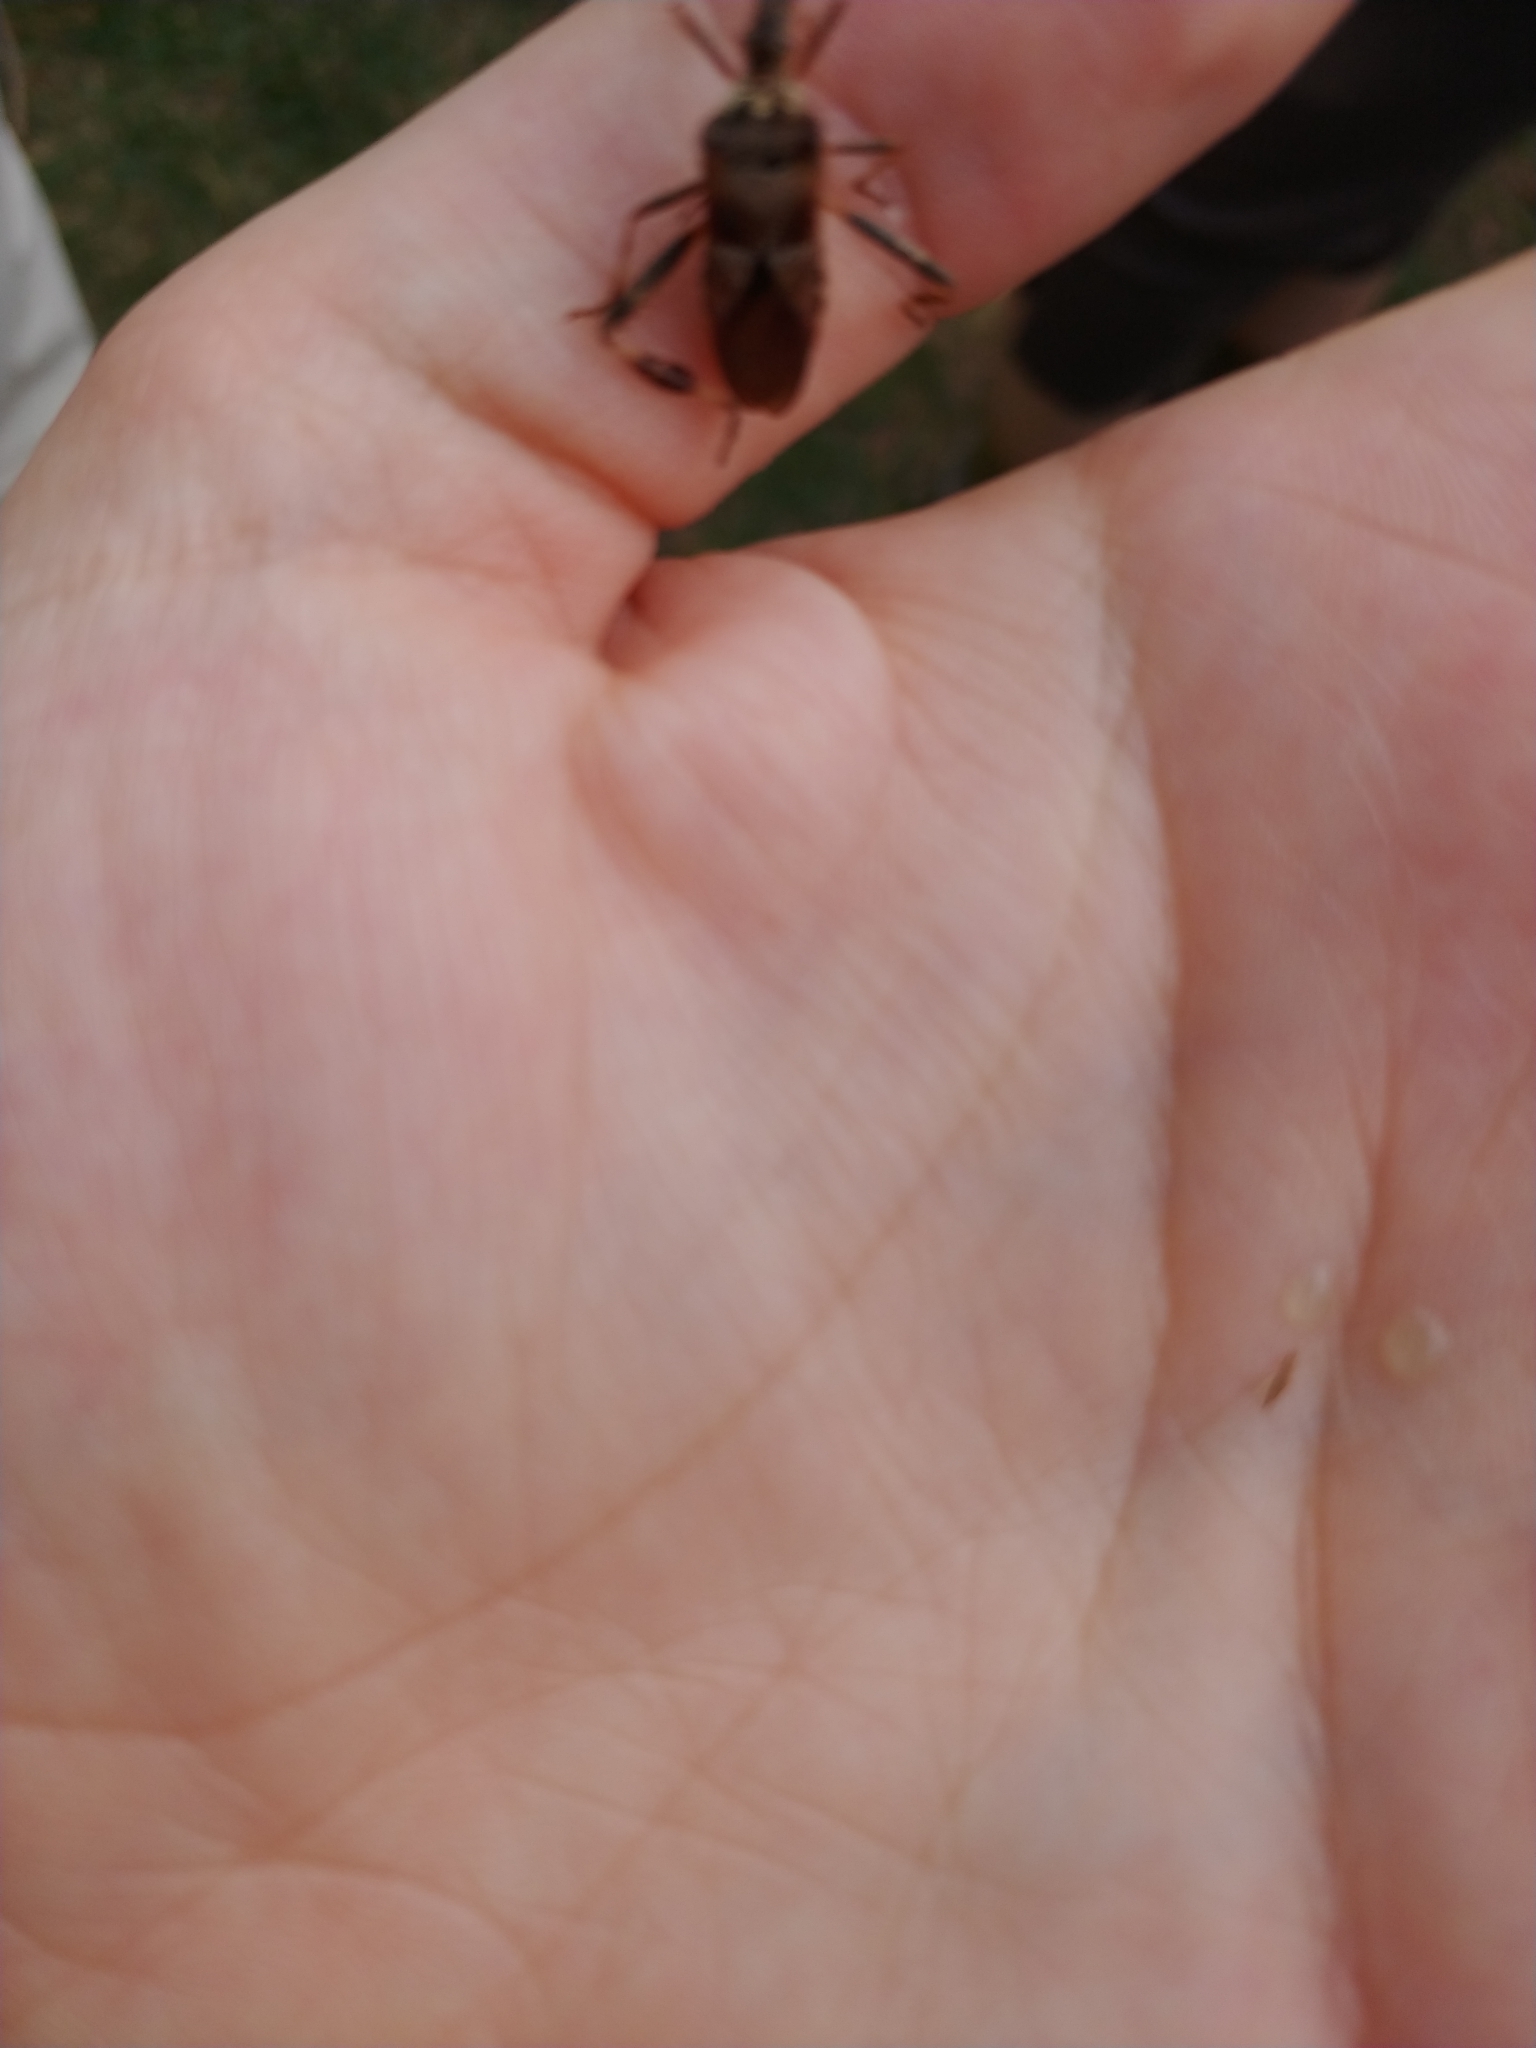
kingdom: Animalia
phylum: Arthropoda
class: Insecta
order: Hemiptera
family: Coreidae
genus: Leptoglossus
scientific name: Leptoglossus occidentalis
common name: Western conifer-seed bug
